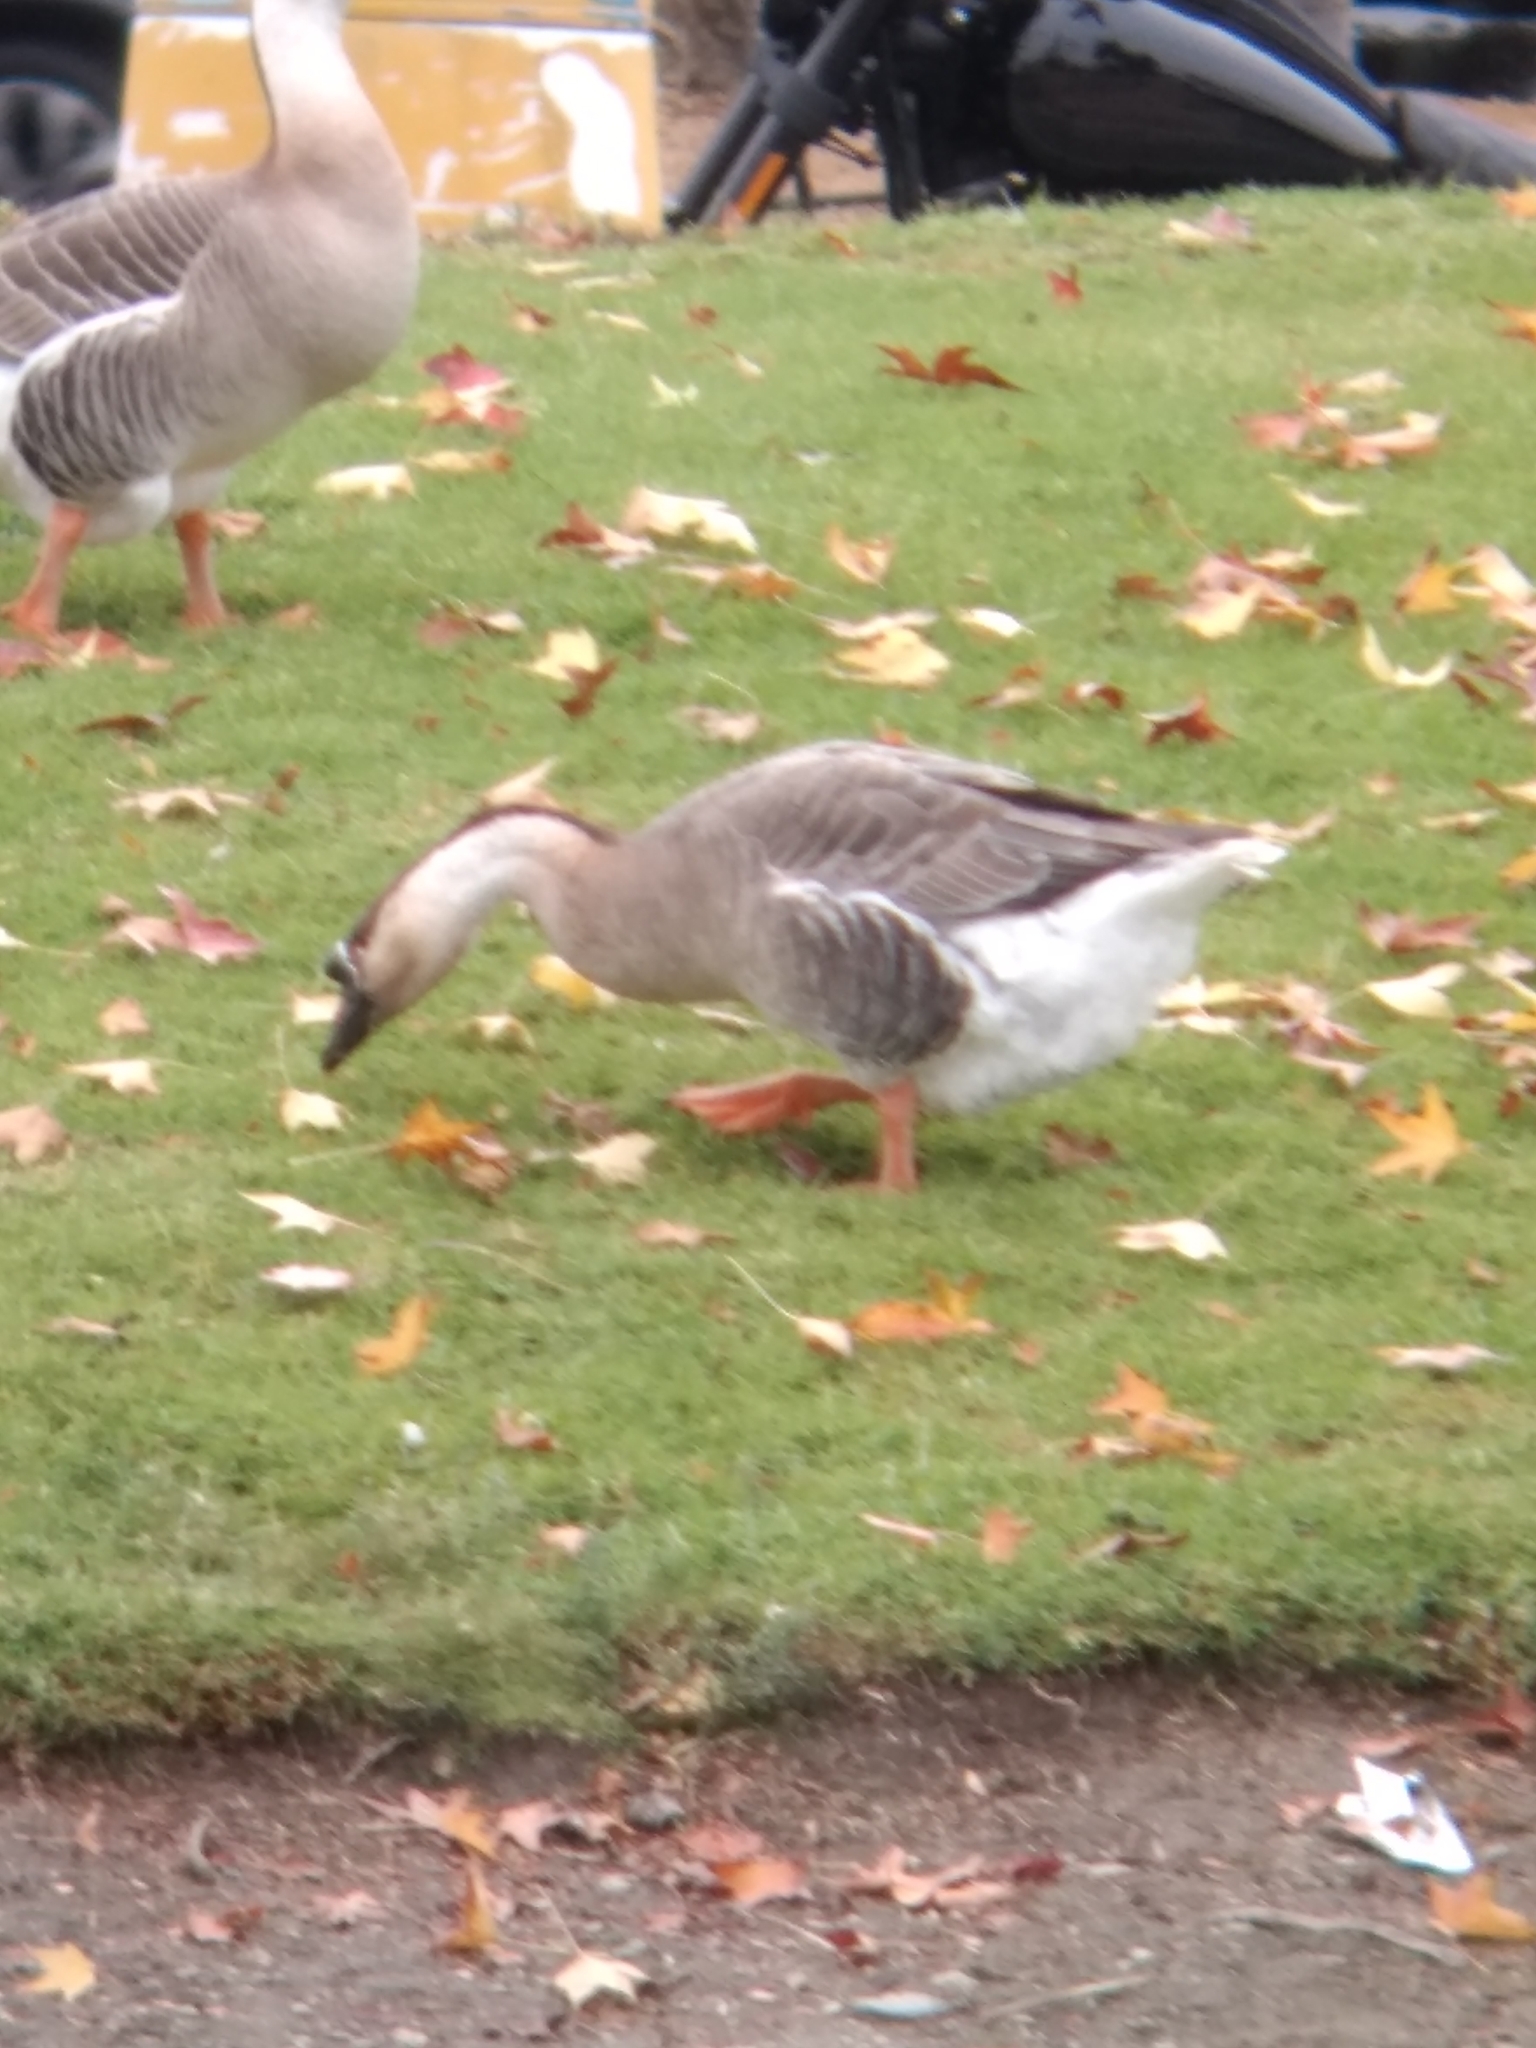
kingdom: Animalia
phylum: Chordata
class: Aves
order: Anseriformes
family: Anatidae
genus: Anser
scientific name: Anser cygnoides
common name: Swan goose
